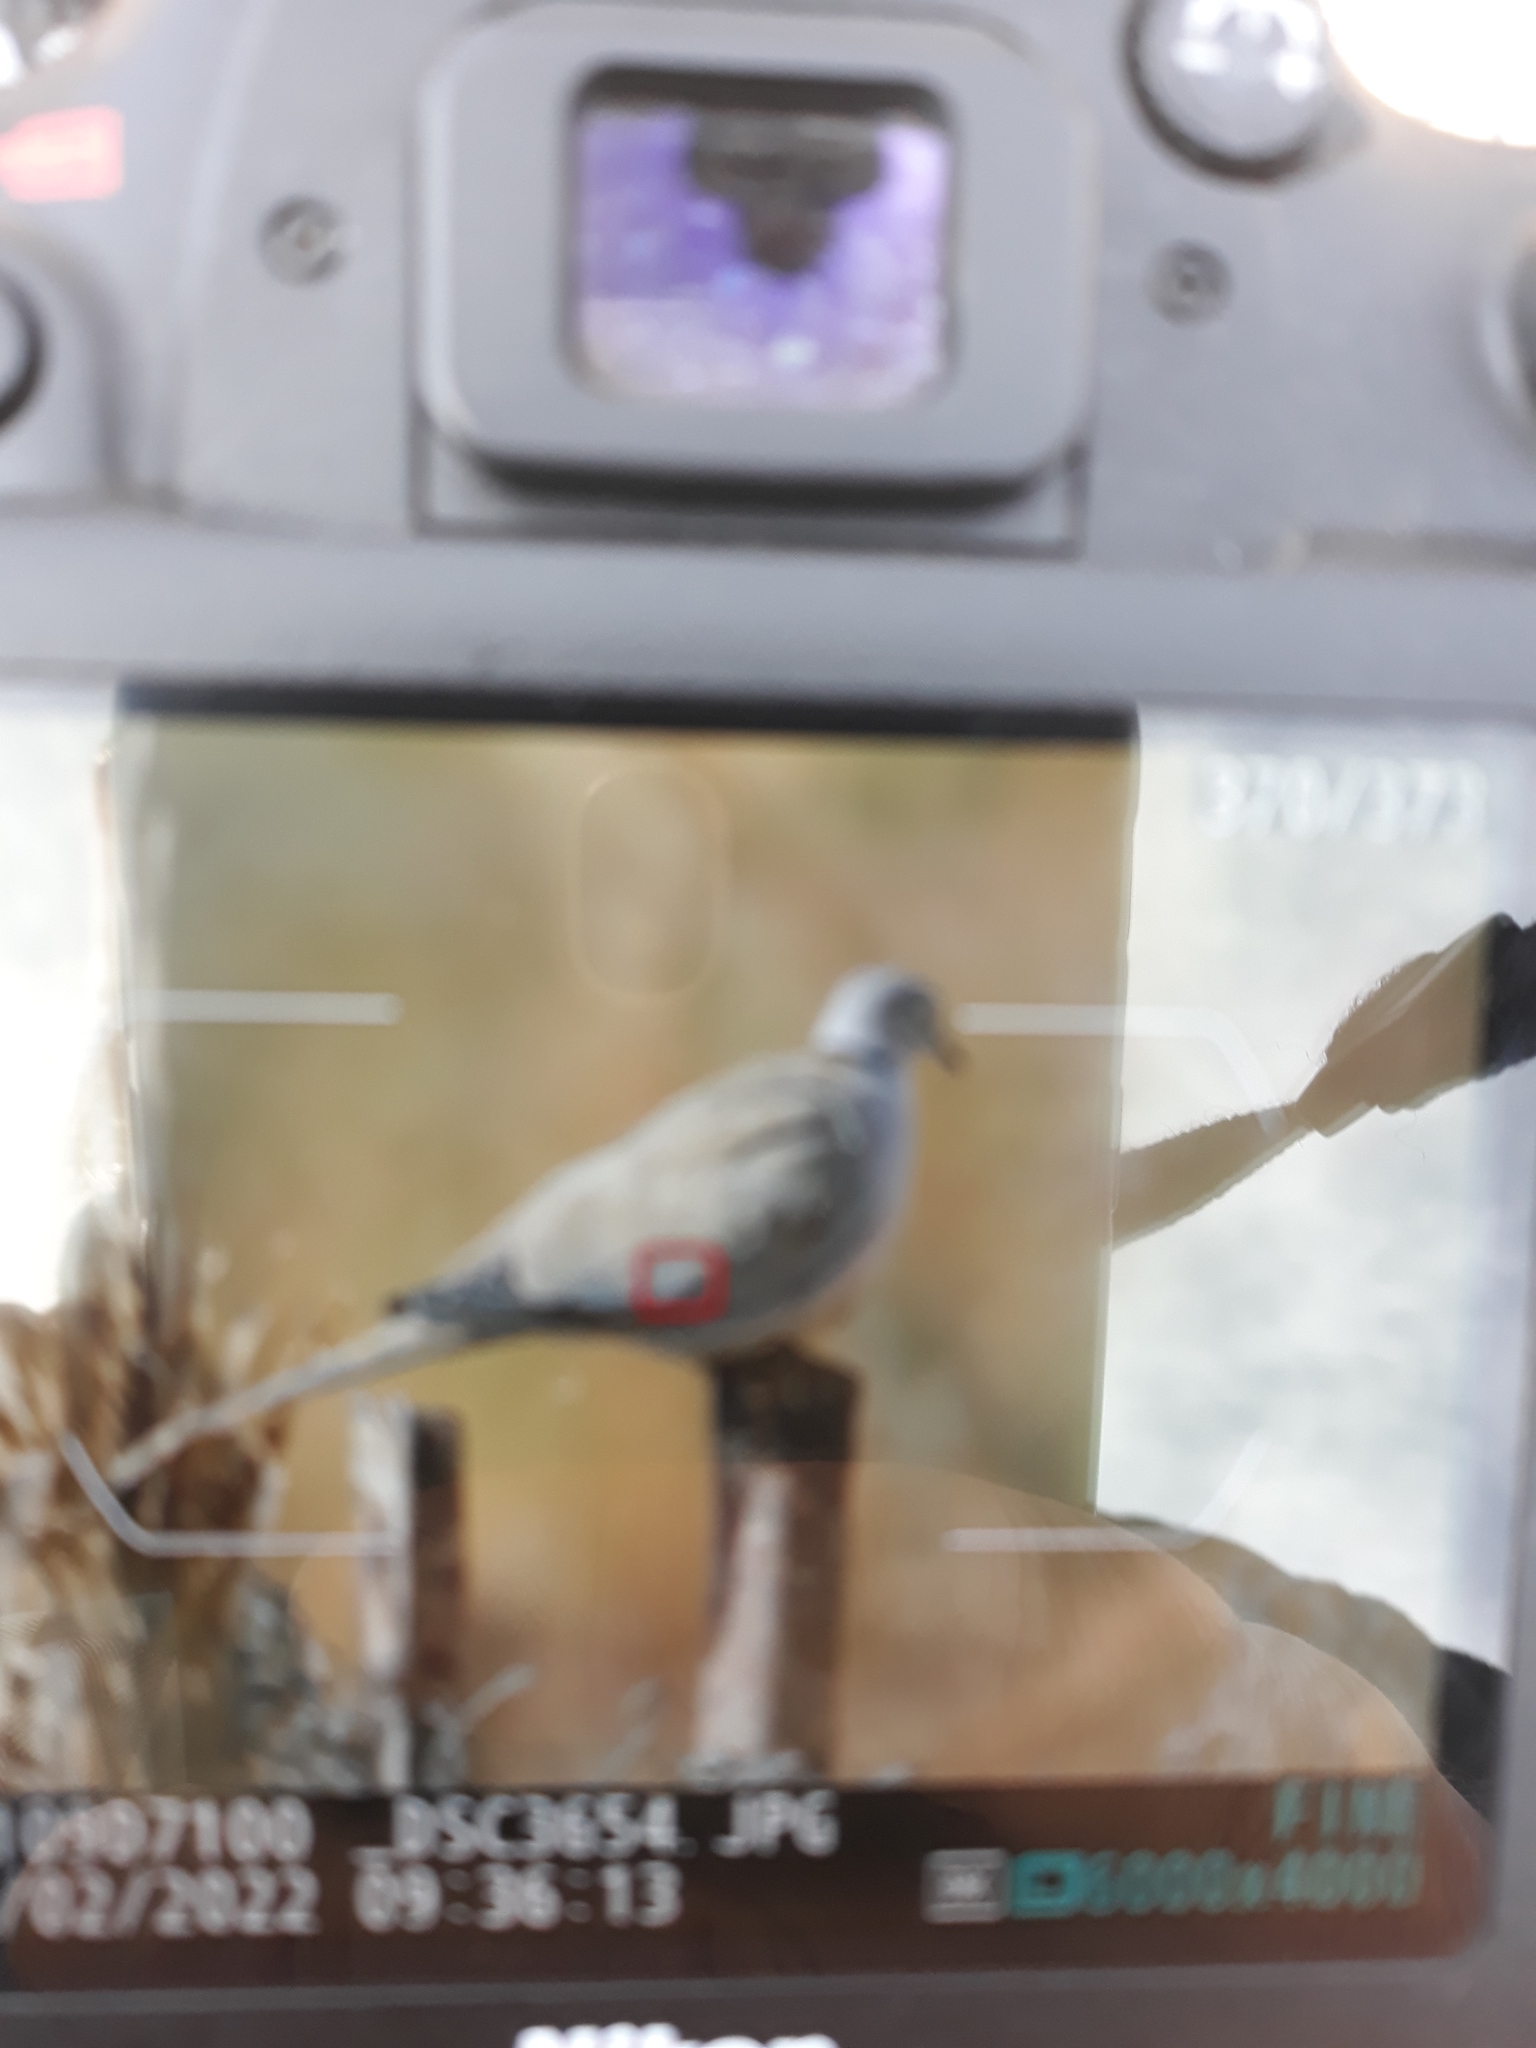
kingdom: Animalia
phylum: Chordata
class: Aves
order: Columbiformes
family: Columbidae
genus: Streptopelia
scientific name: Streptopelia decaocto
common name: Eurasian collared dove
